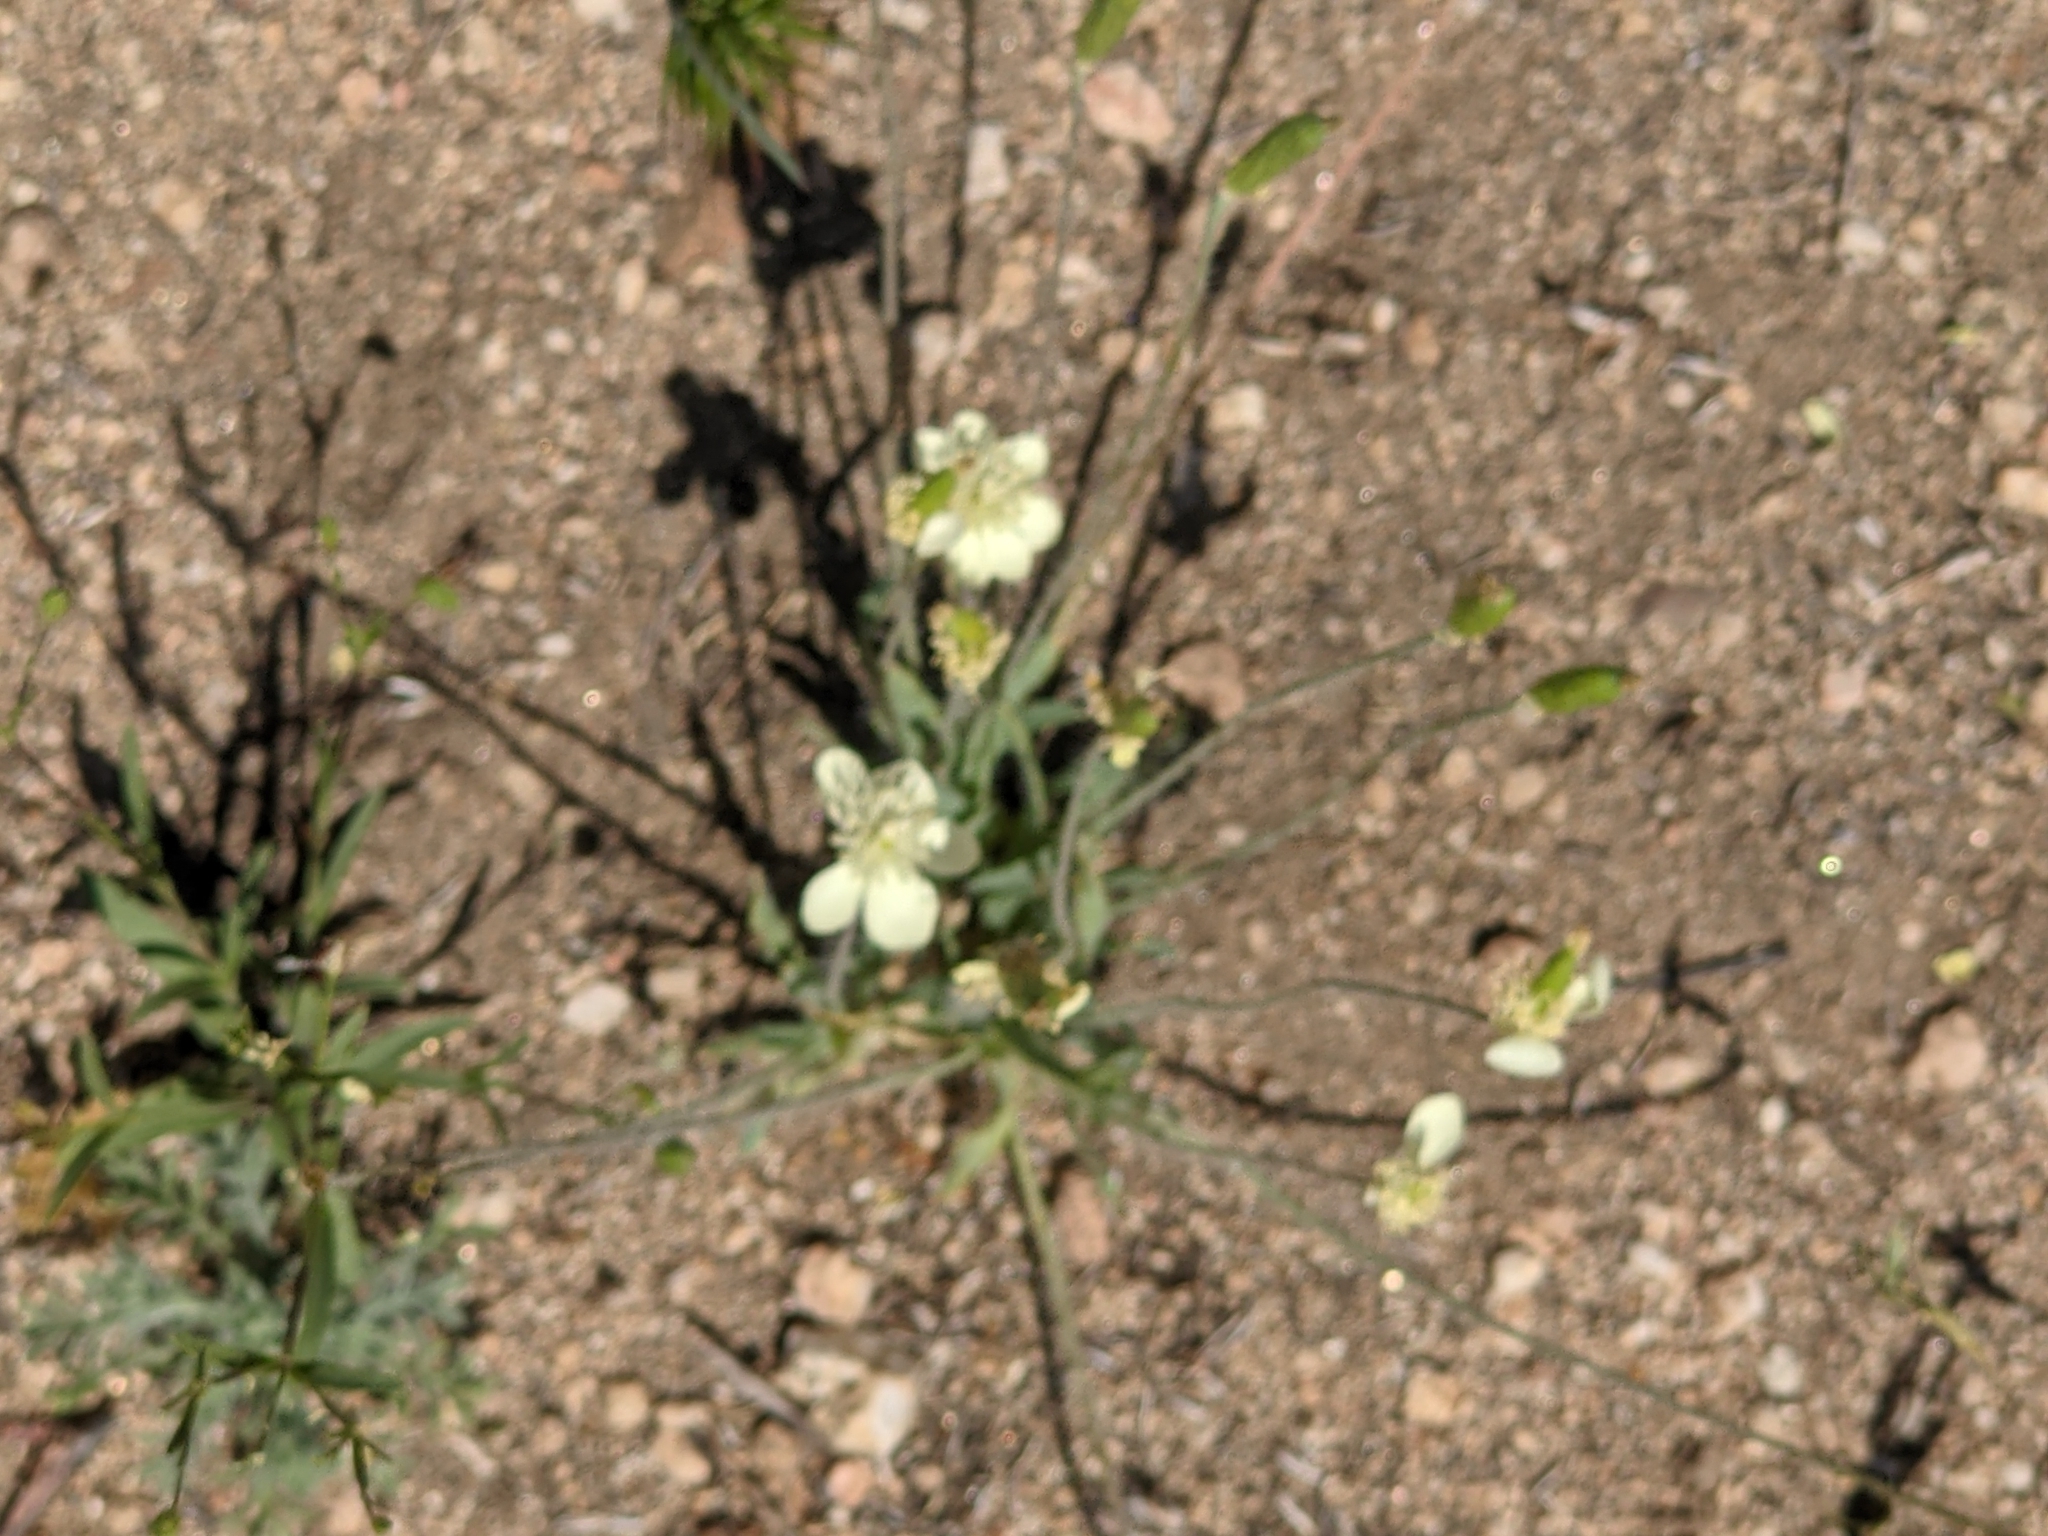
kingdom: Plantae
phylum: Tracheophyta
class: Magnoliopsida
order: Ranunculales
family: Papaveraceae
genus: Platystemon
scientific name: Platystemon californicus
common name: Cream-cups
